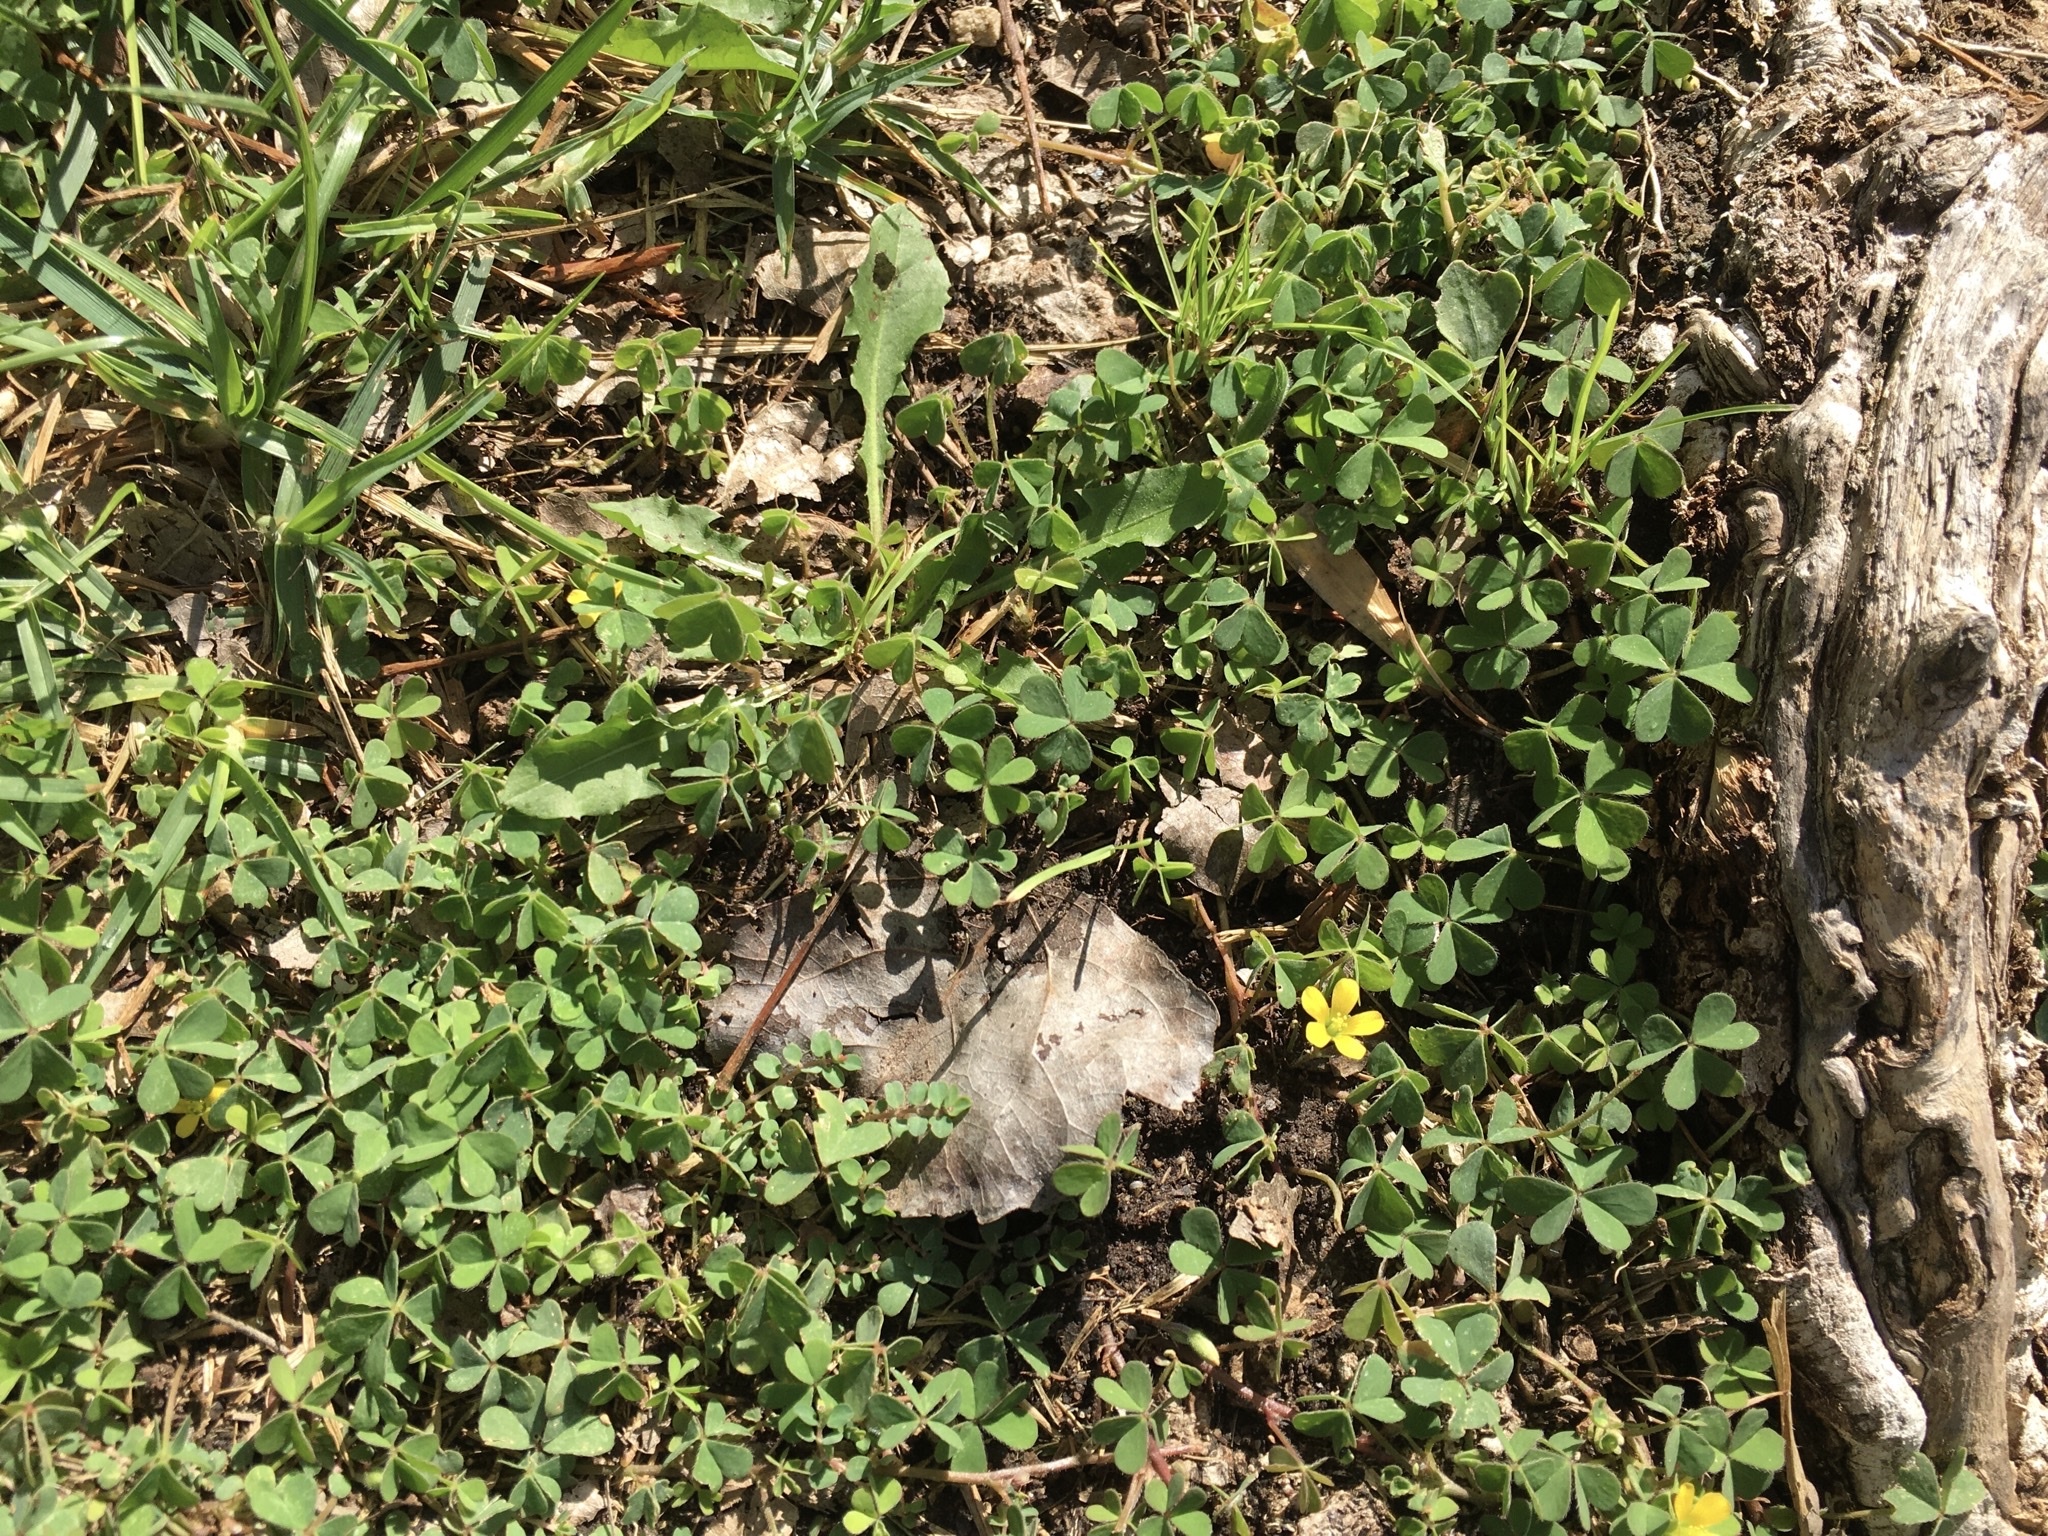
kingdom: Plantae
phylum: Tracheophyta
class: Magnoliopsida
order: Oxalidales
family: Oxalidaceae
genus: Oxalis
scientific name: Oxalis corniculata
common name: Procumbent yellow-sorrel
